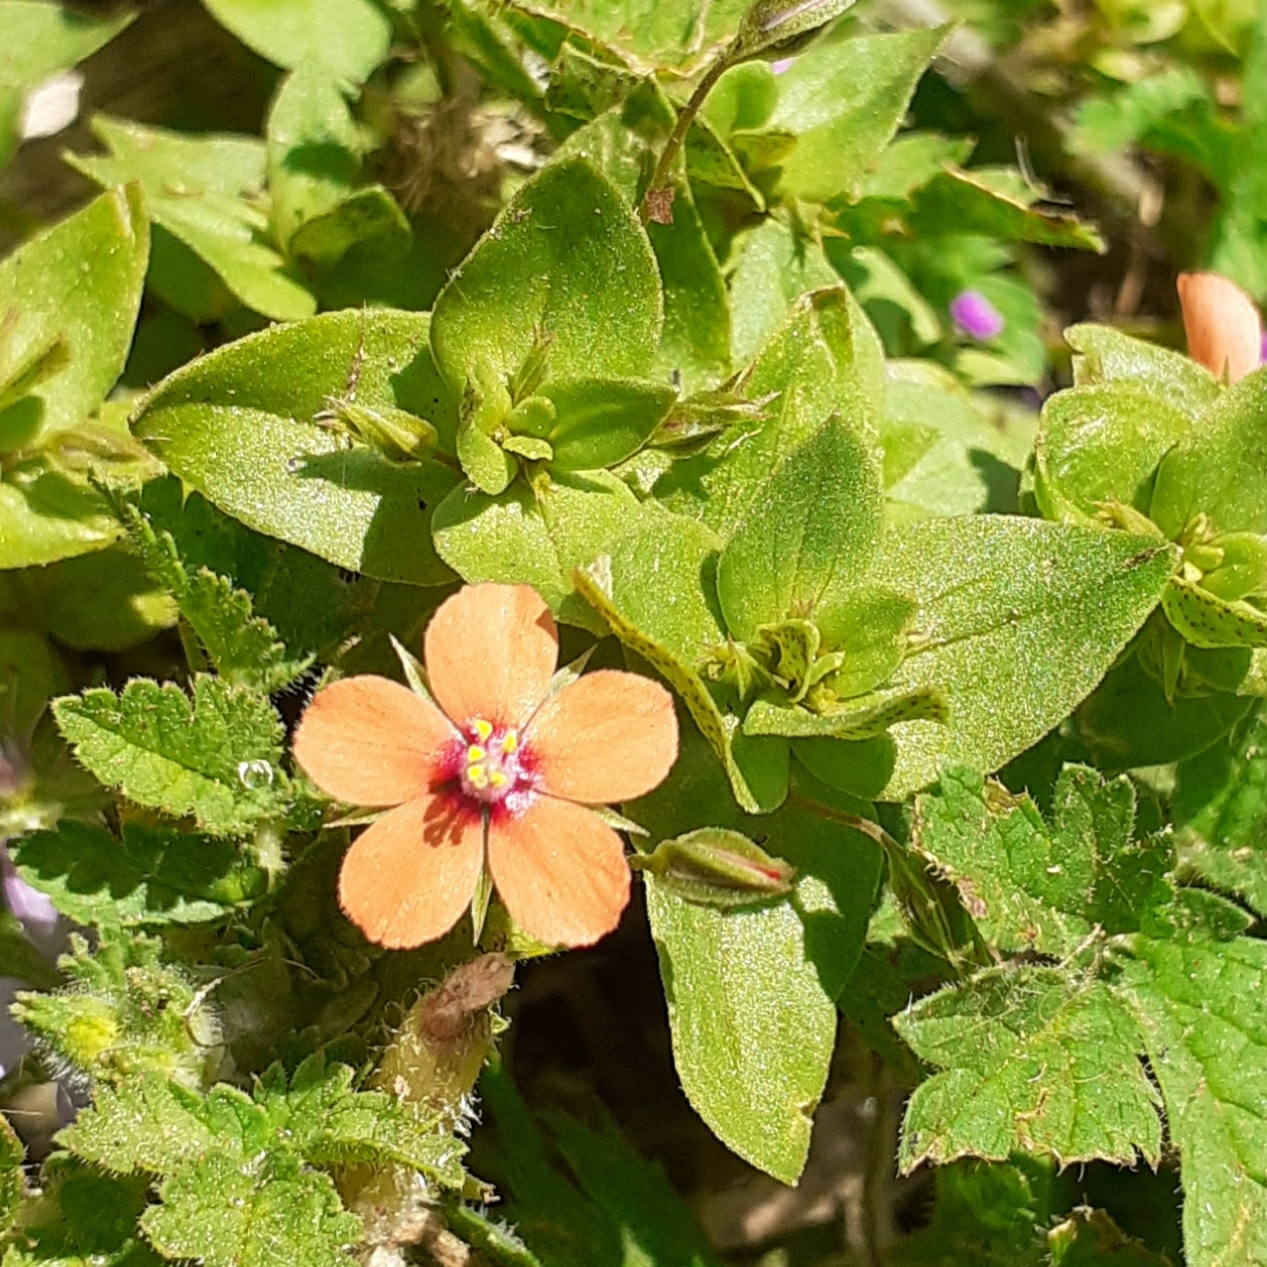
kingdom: Plantae
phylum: Tracheophyta
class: Magnoliopsida
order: Ericales
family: Primulaceae
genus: Lysimachia
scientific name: Lysimachia arvensis
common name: Scarlet pimpernel
